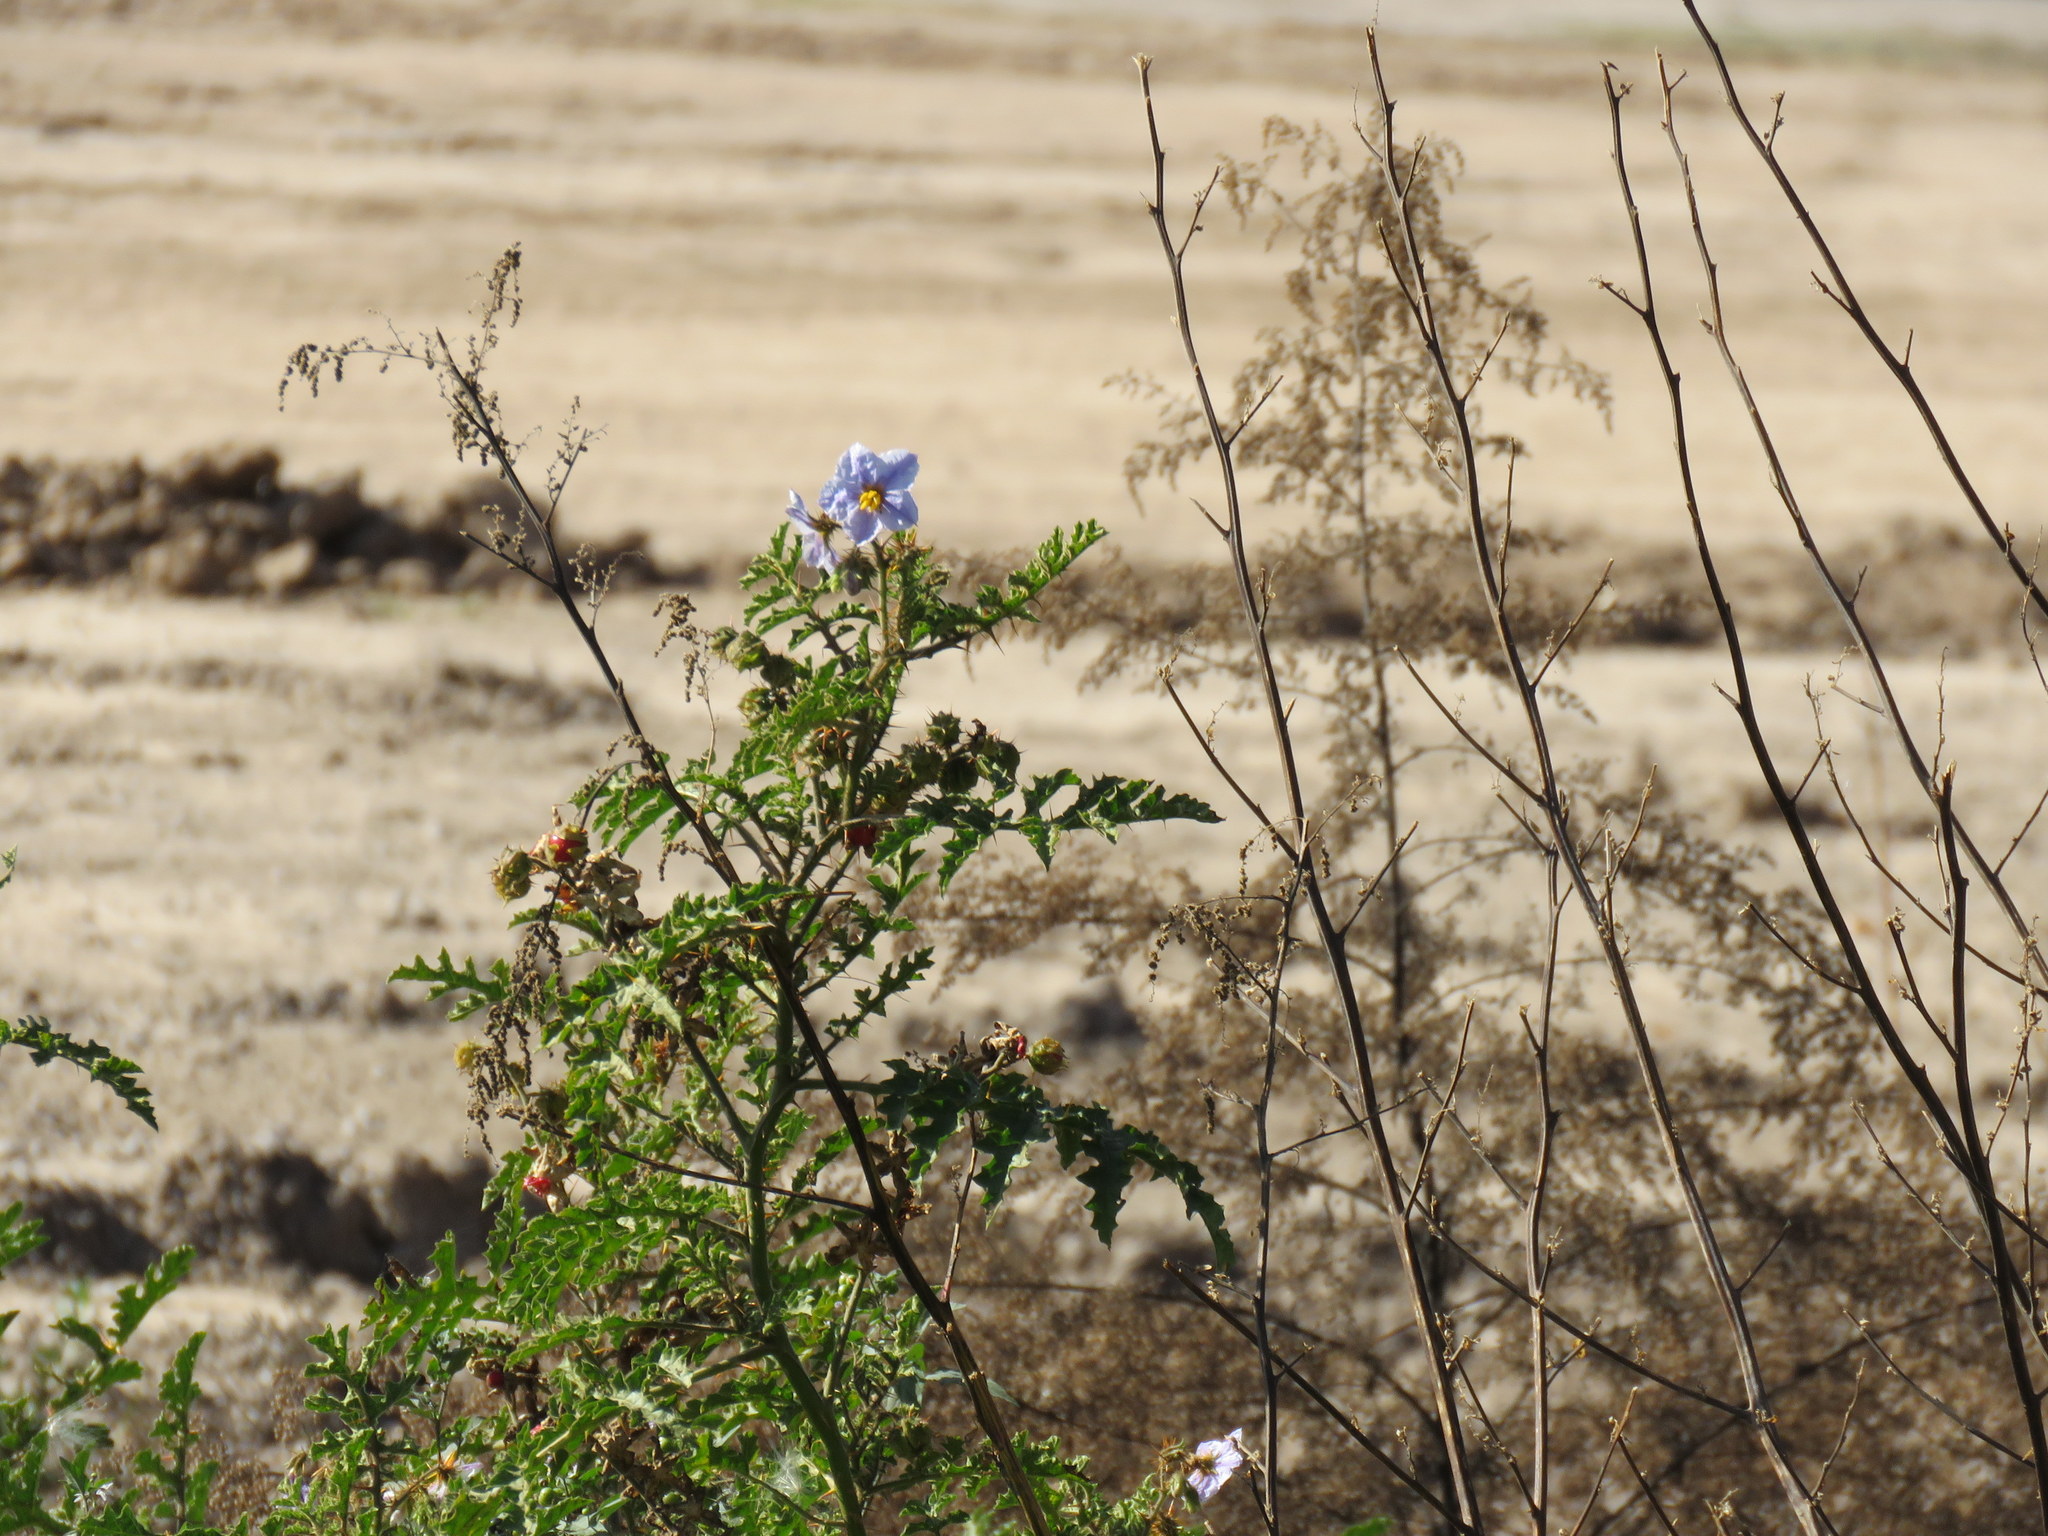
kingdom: Plantae
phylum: Tracheophyta
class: Magnoliopsida
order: Solanales
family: Solanaceae
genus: Solanum
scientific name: Solanum sisymbriifolium
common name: Red buffalo-bur
